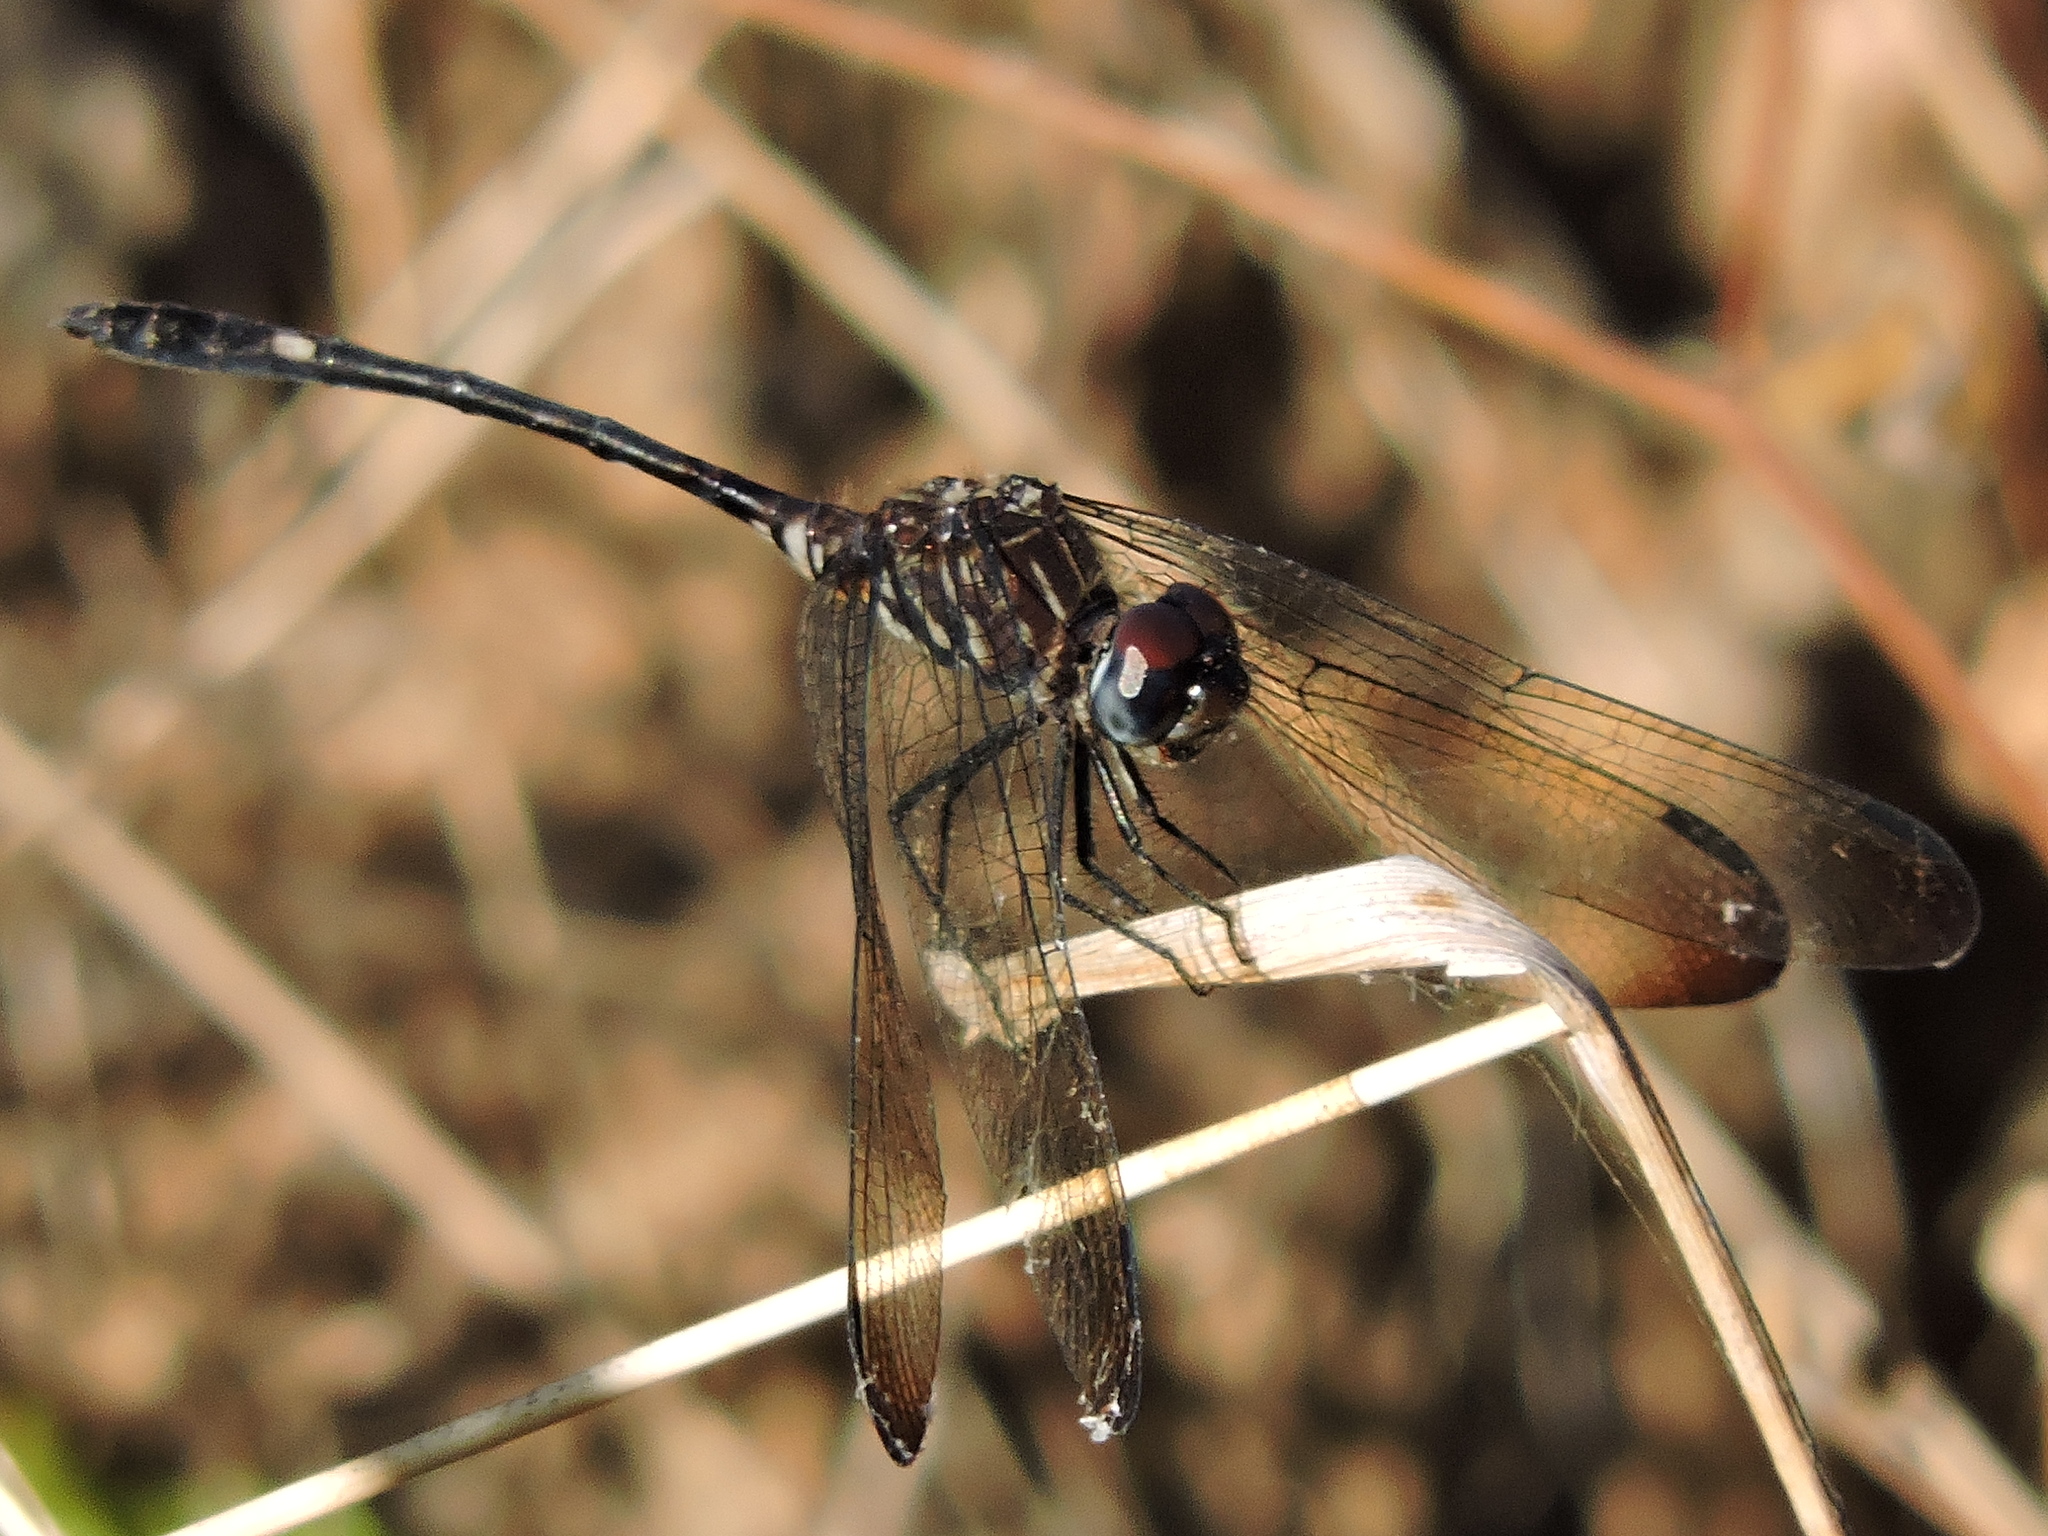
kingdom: Animalia
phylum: Arthropoda
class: Insecta
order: Odonata
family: Libellulidae
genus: Dythemis
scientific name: Dythemis velox
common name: Swift setwing
